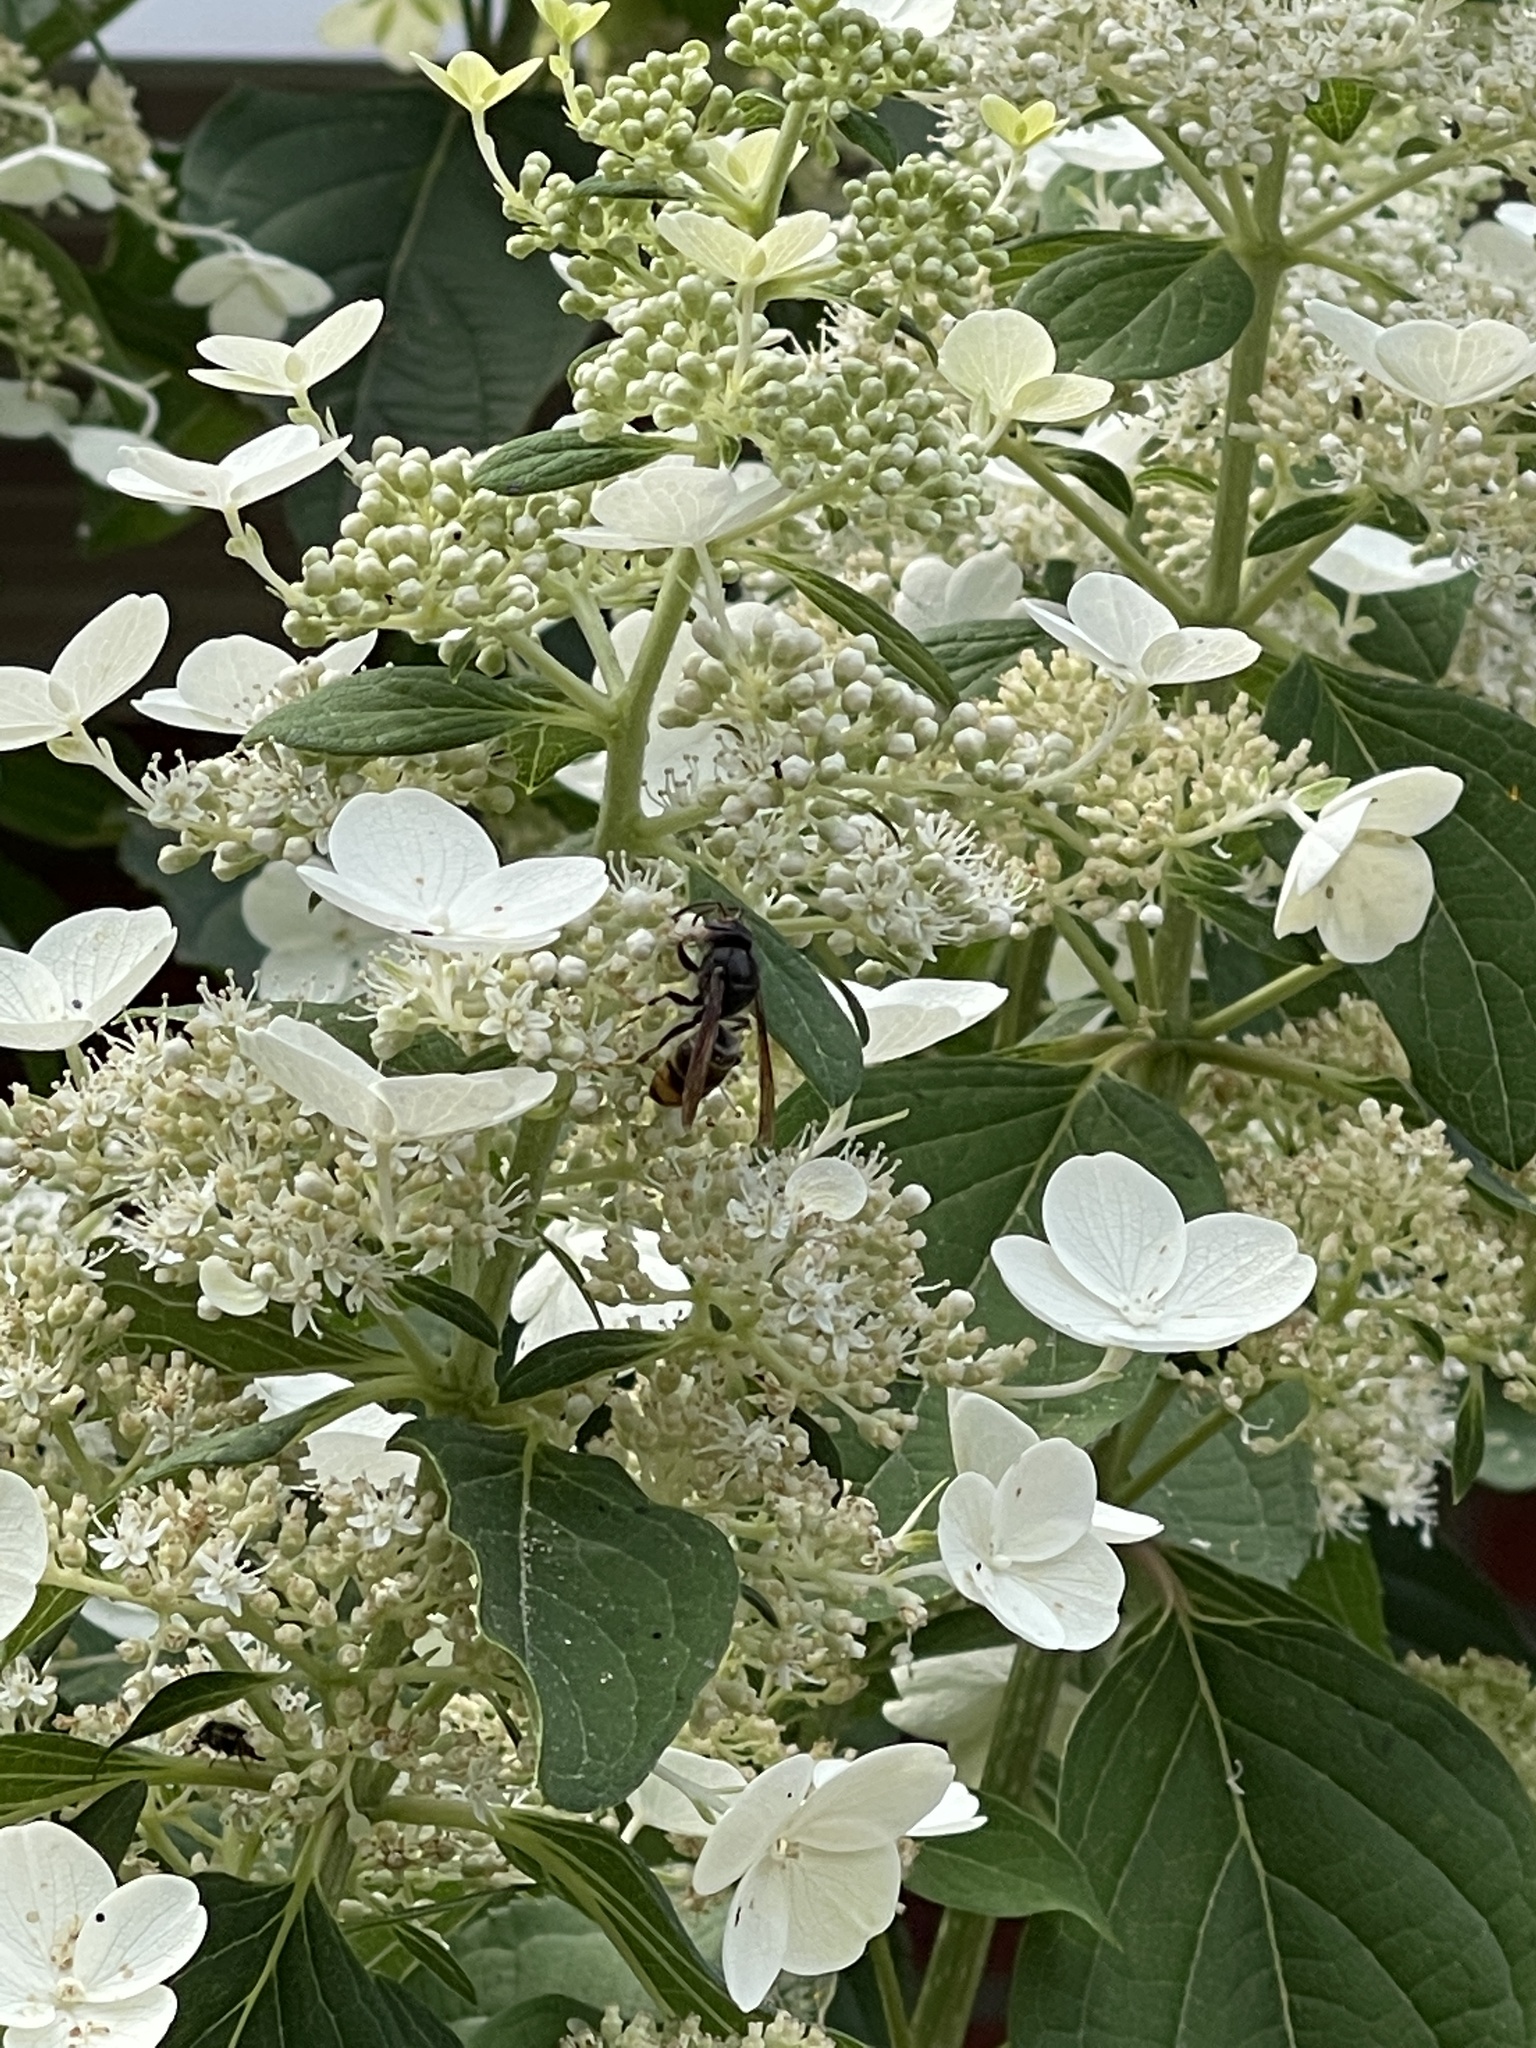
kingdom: Animalia
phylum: Arthropoda
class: Insecta
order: Hymenoptera
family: Vespidae
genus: Vespa
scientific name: Vespa velutina
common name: Asian hornet
